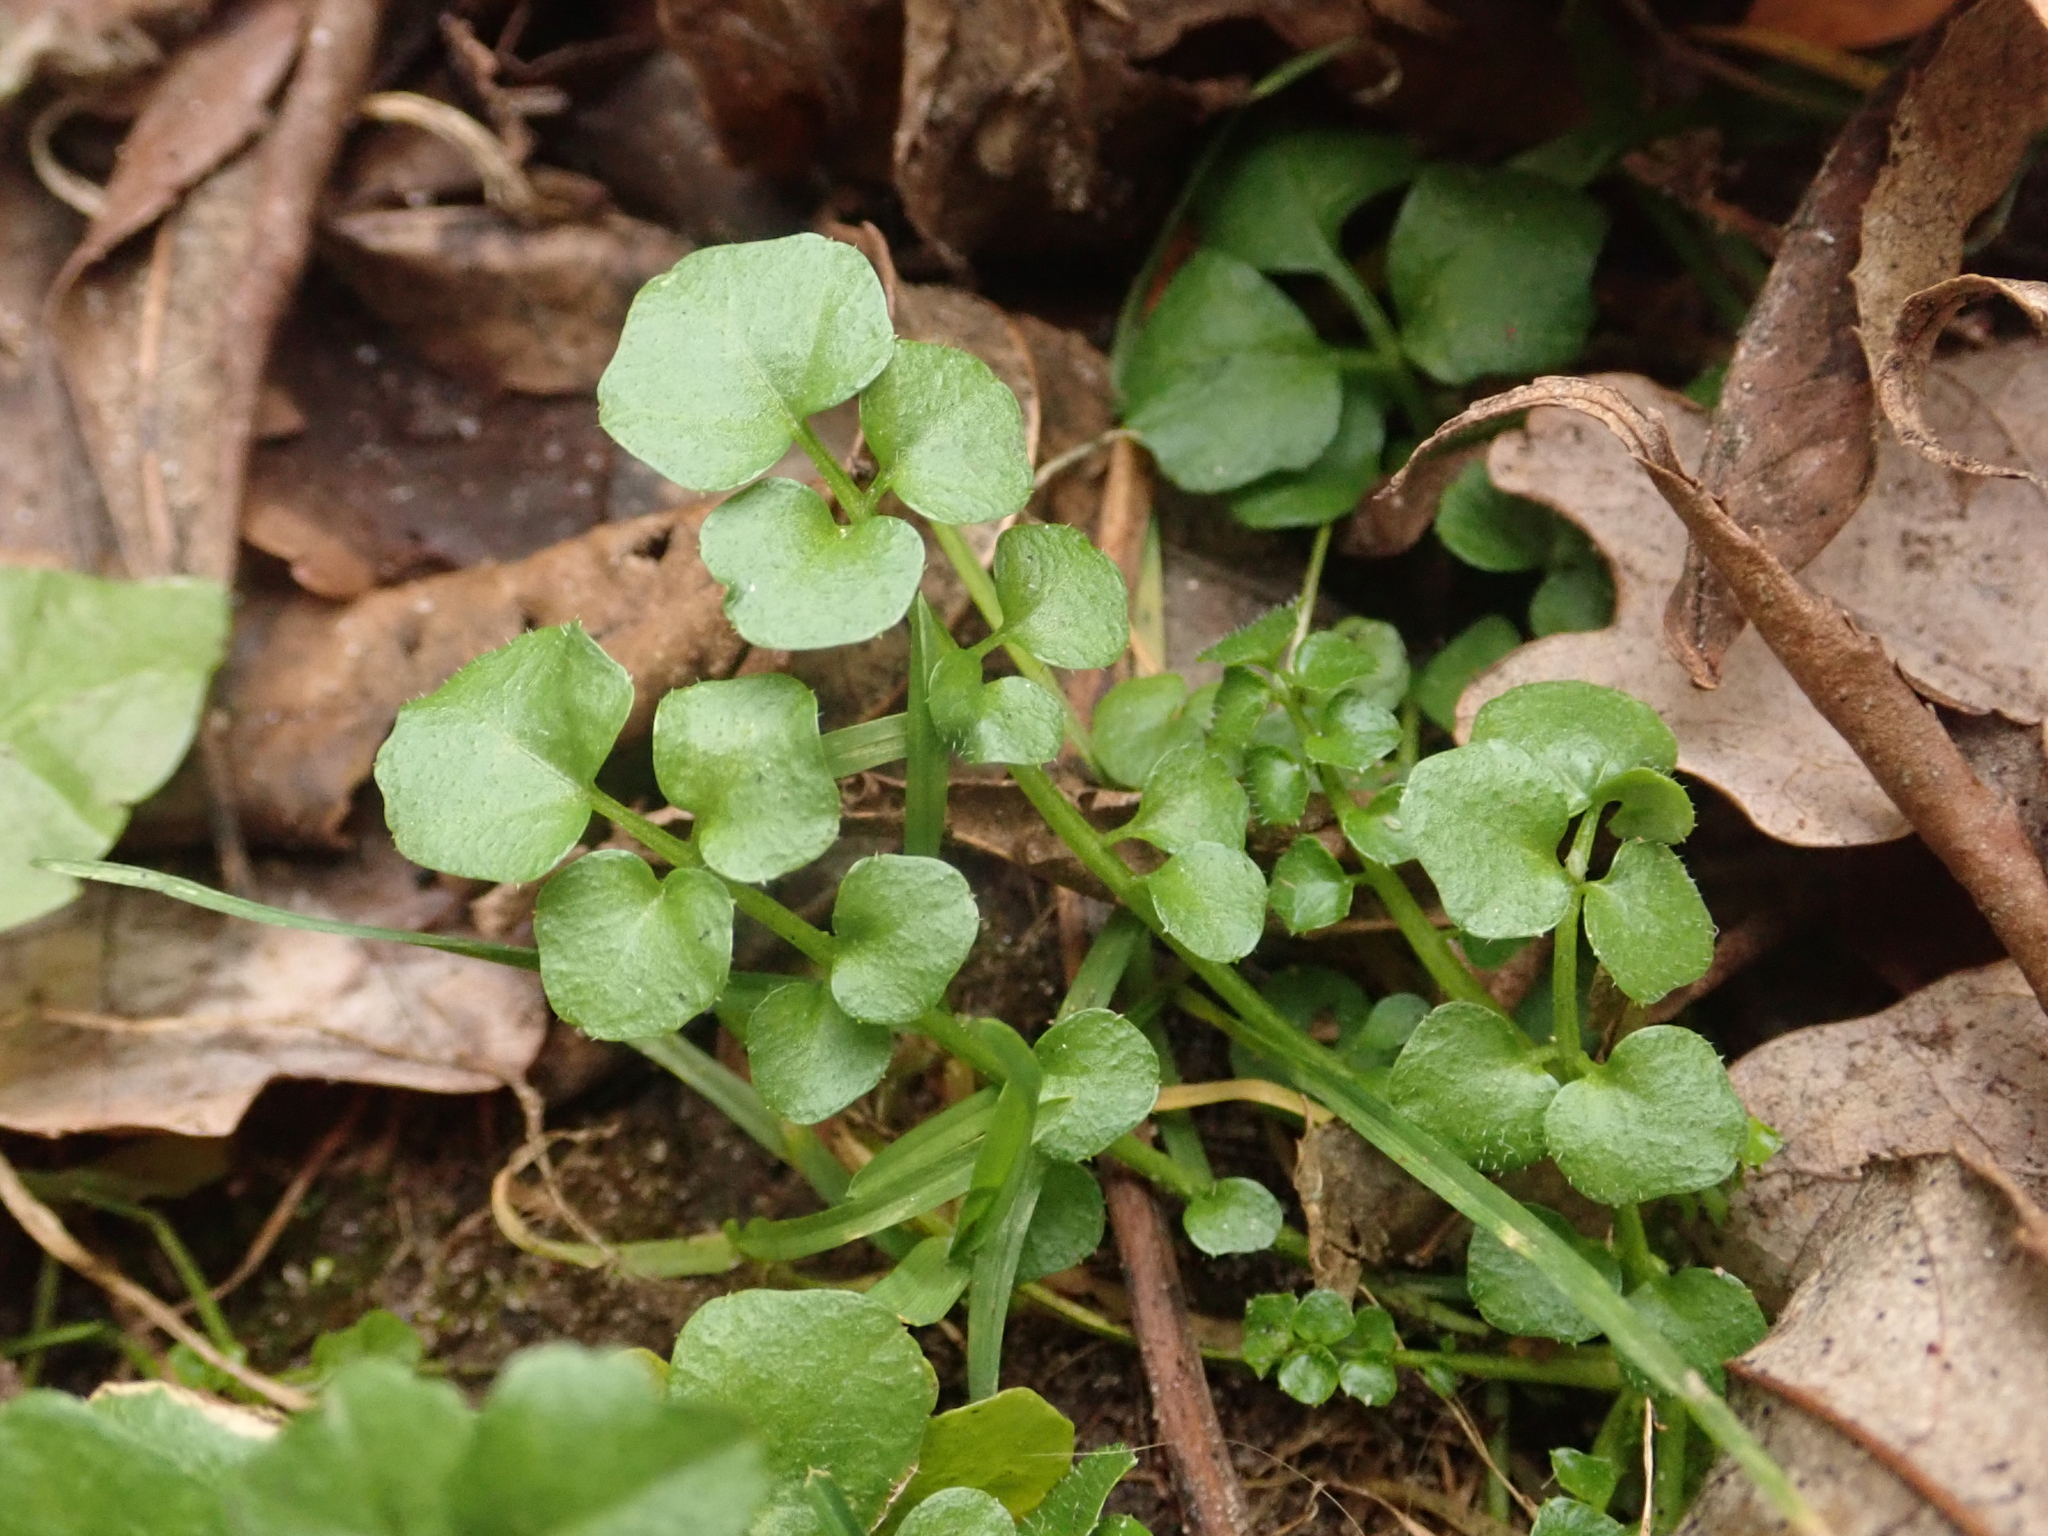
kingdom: Plantae
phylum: Tracheophyta
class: Magnoliopsida
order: Brassicales
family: Brassicaceae
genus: Cardamine
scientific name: Cardamine hirsuta
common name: Hairy bittercress
